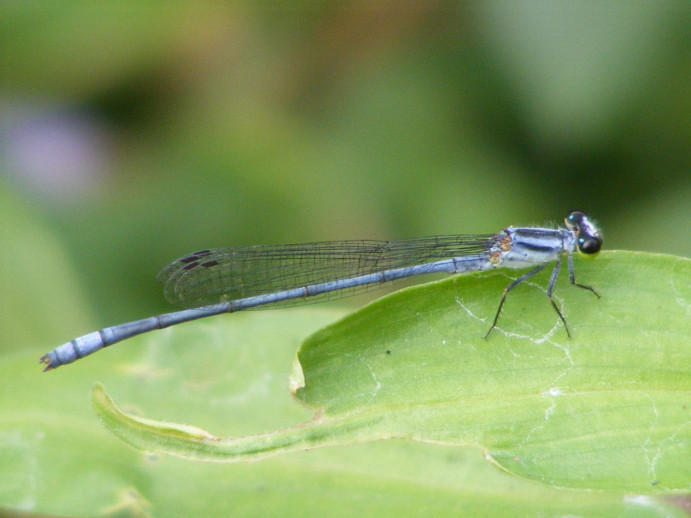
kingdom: Animalia
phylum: Arthropoda
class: Insecta
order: Odonata
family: Coenagrionidae
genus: Pseudagrion
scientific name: Pseudagrion kersteni
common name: Powder-faced sprite
